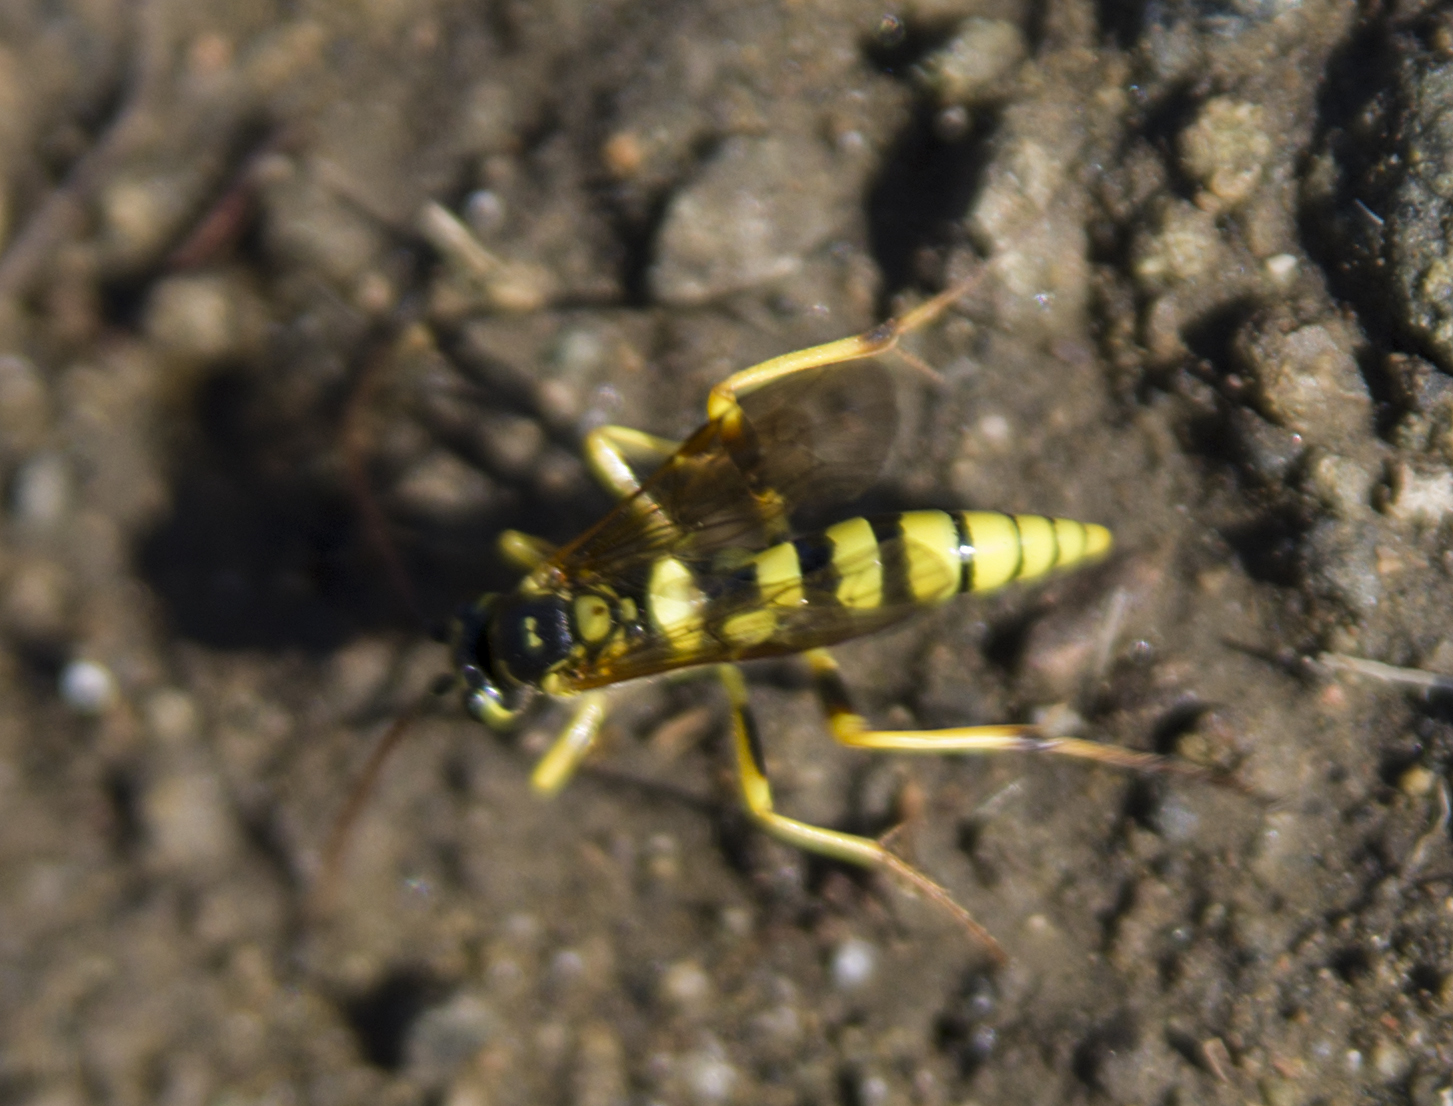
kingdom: Animalia
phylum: Arthropoda
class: Insecta
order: Hymenoptera
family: Ichneumonidae
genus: Banchus
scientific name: Banchus pictus
